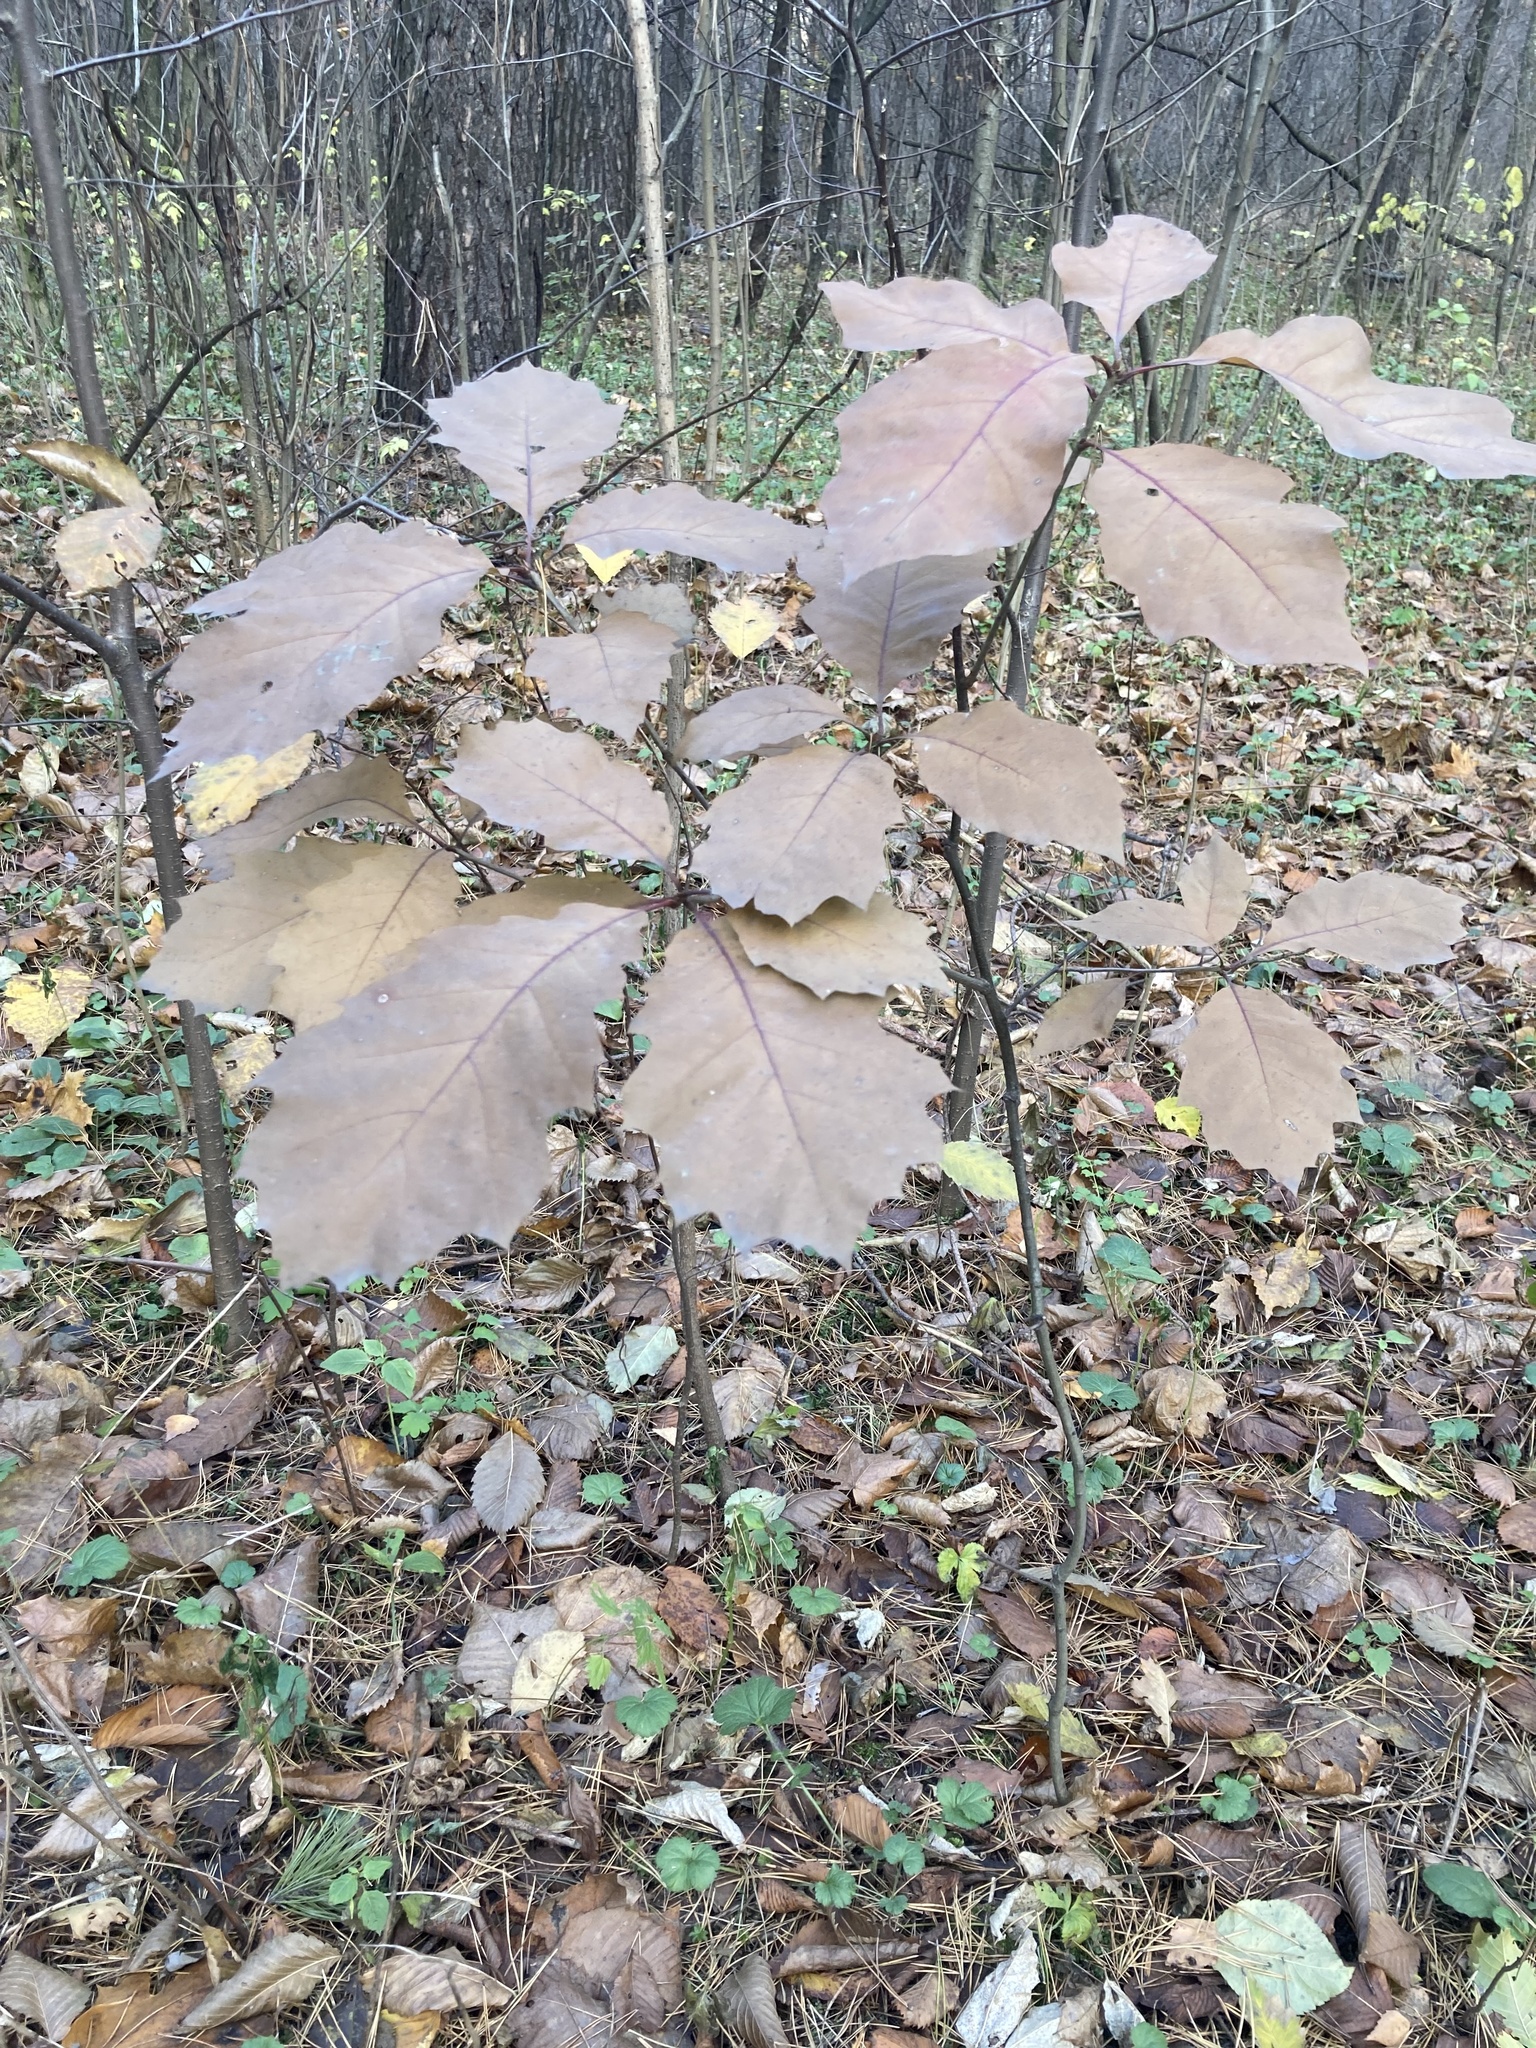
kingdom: Plantae
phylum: Tracheophyta
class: Magnoliopsida
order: Fagales
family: Fagaceae
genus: Quercus
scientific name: Quercus rubra
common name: Red oak
